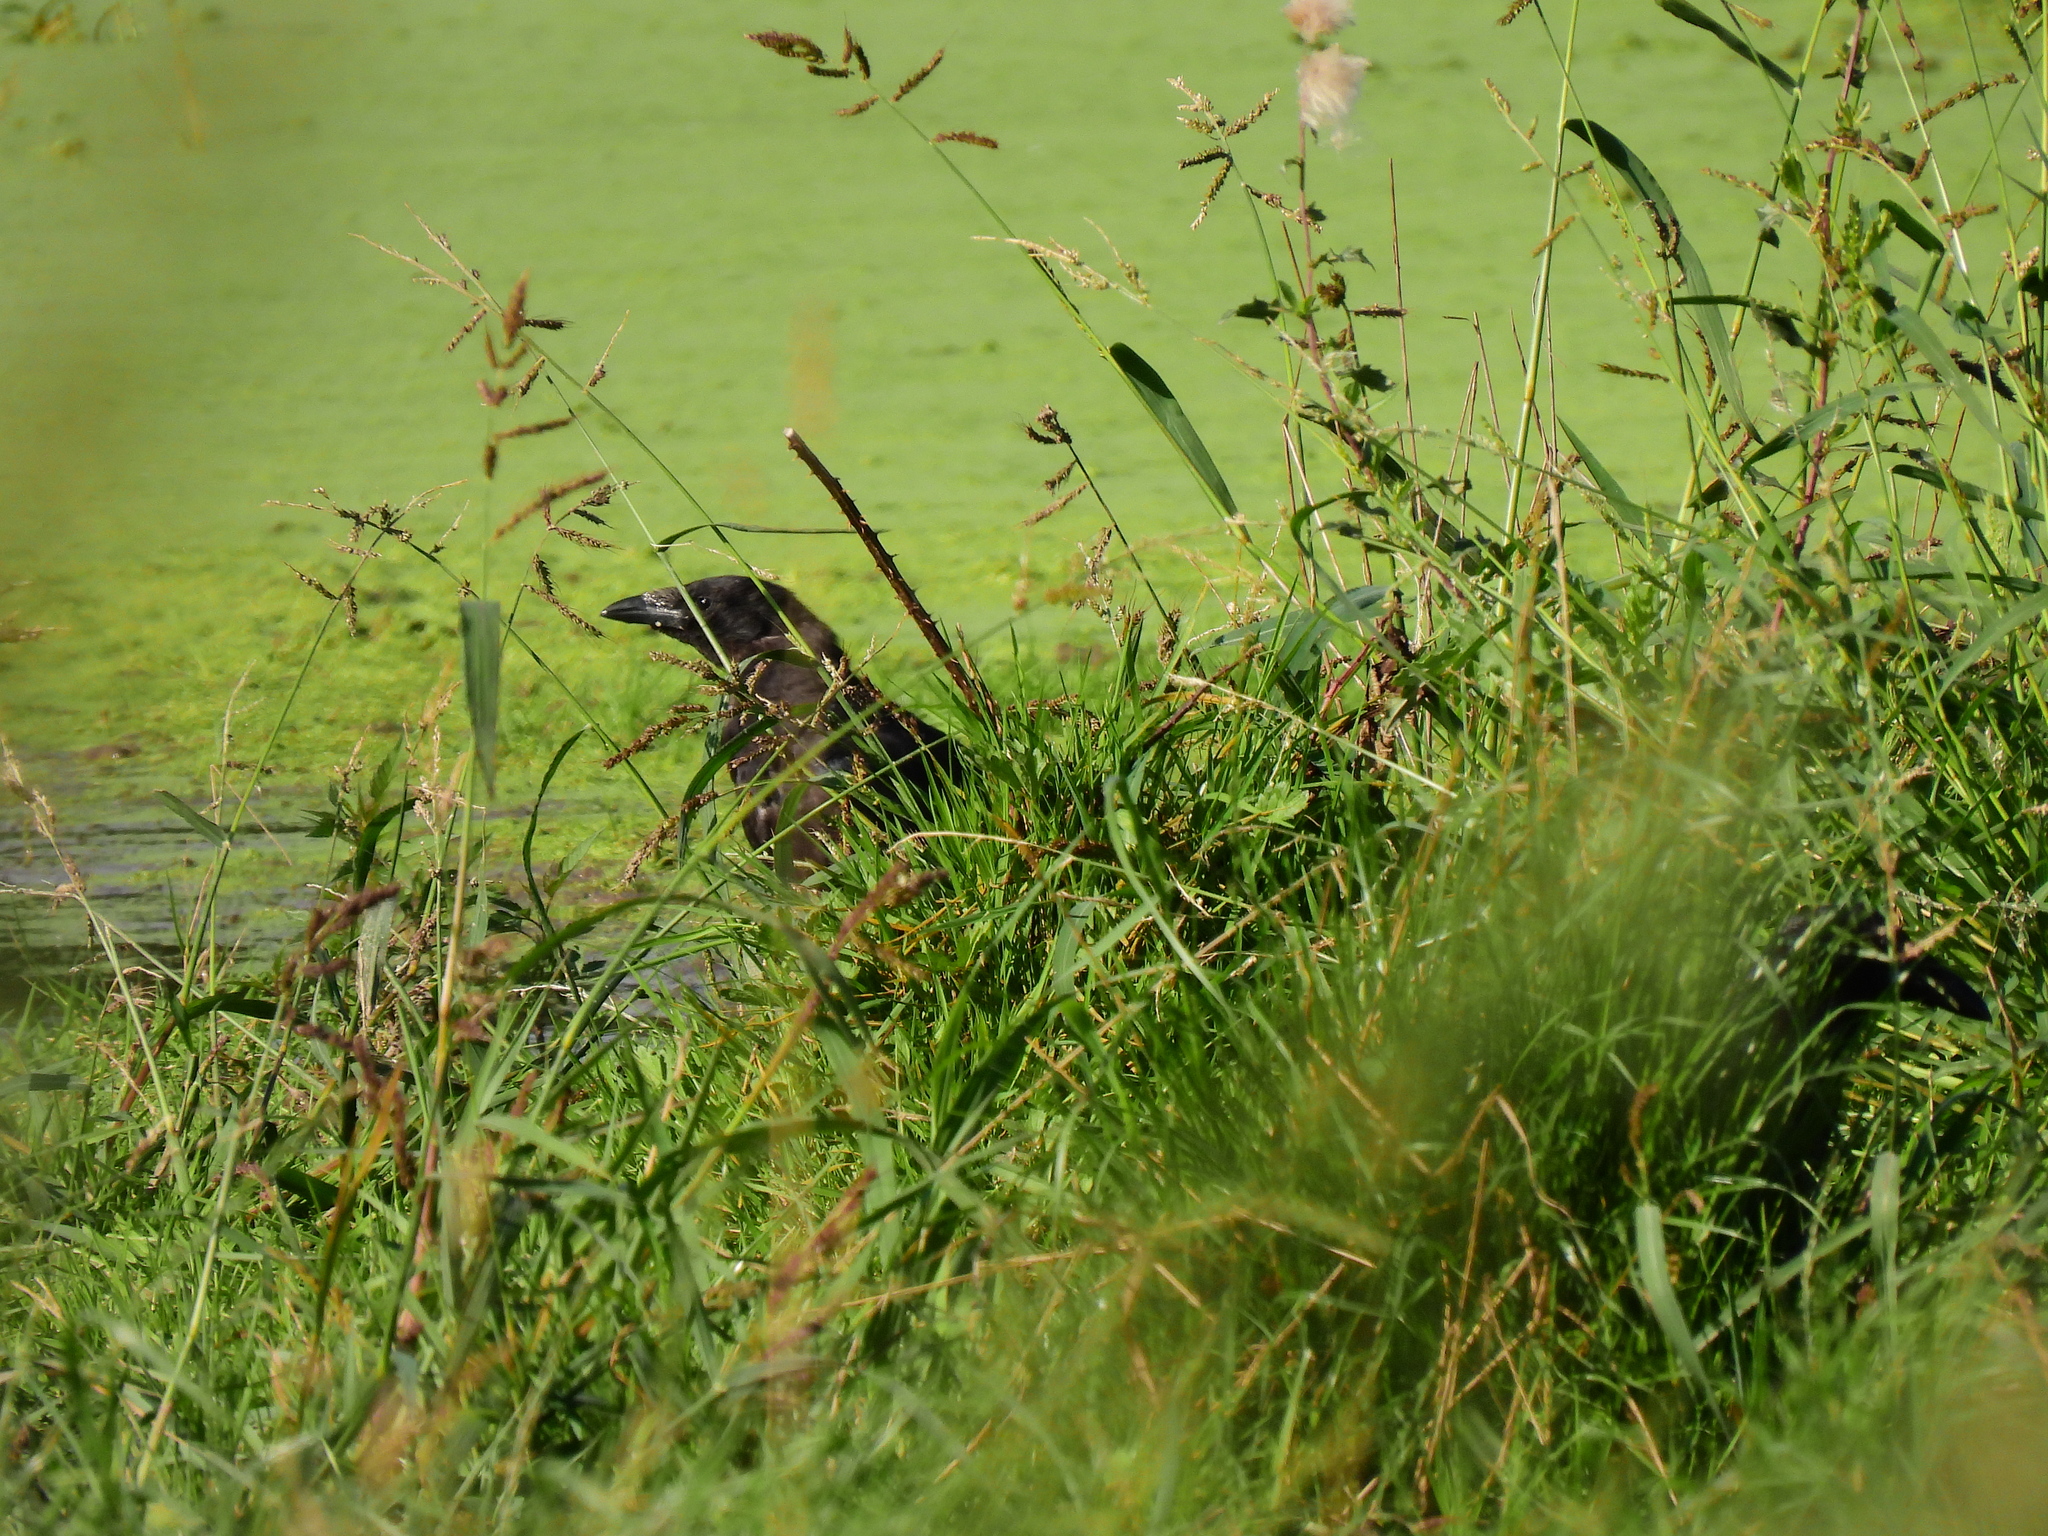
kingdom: Animalia
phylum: Chordata
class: Aves
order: Passeriformes
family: Corvidae
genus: Corvus
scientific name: Corvus corone
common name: Carrion crow
